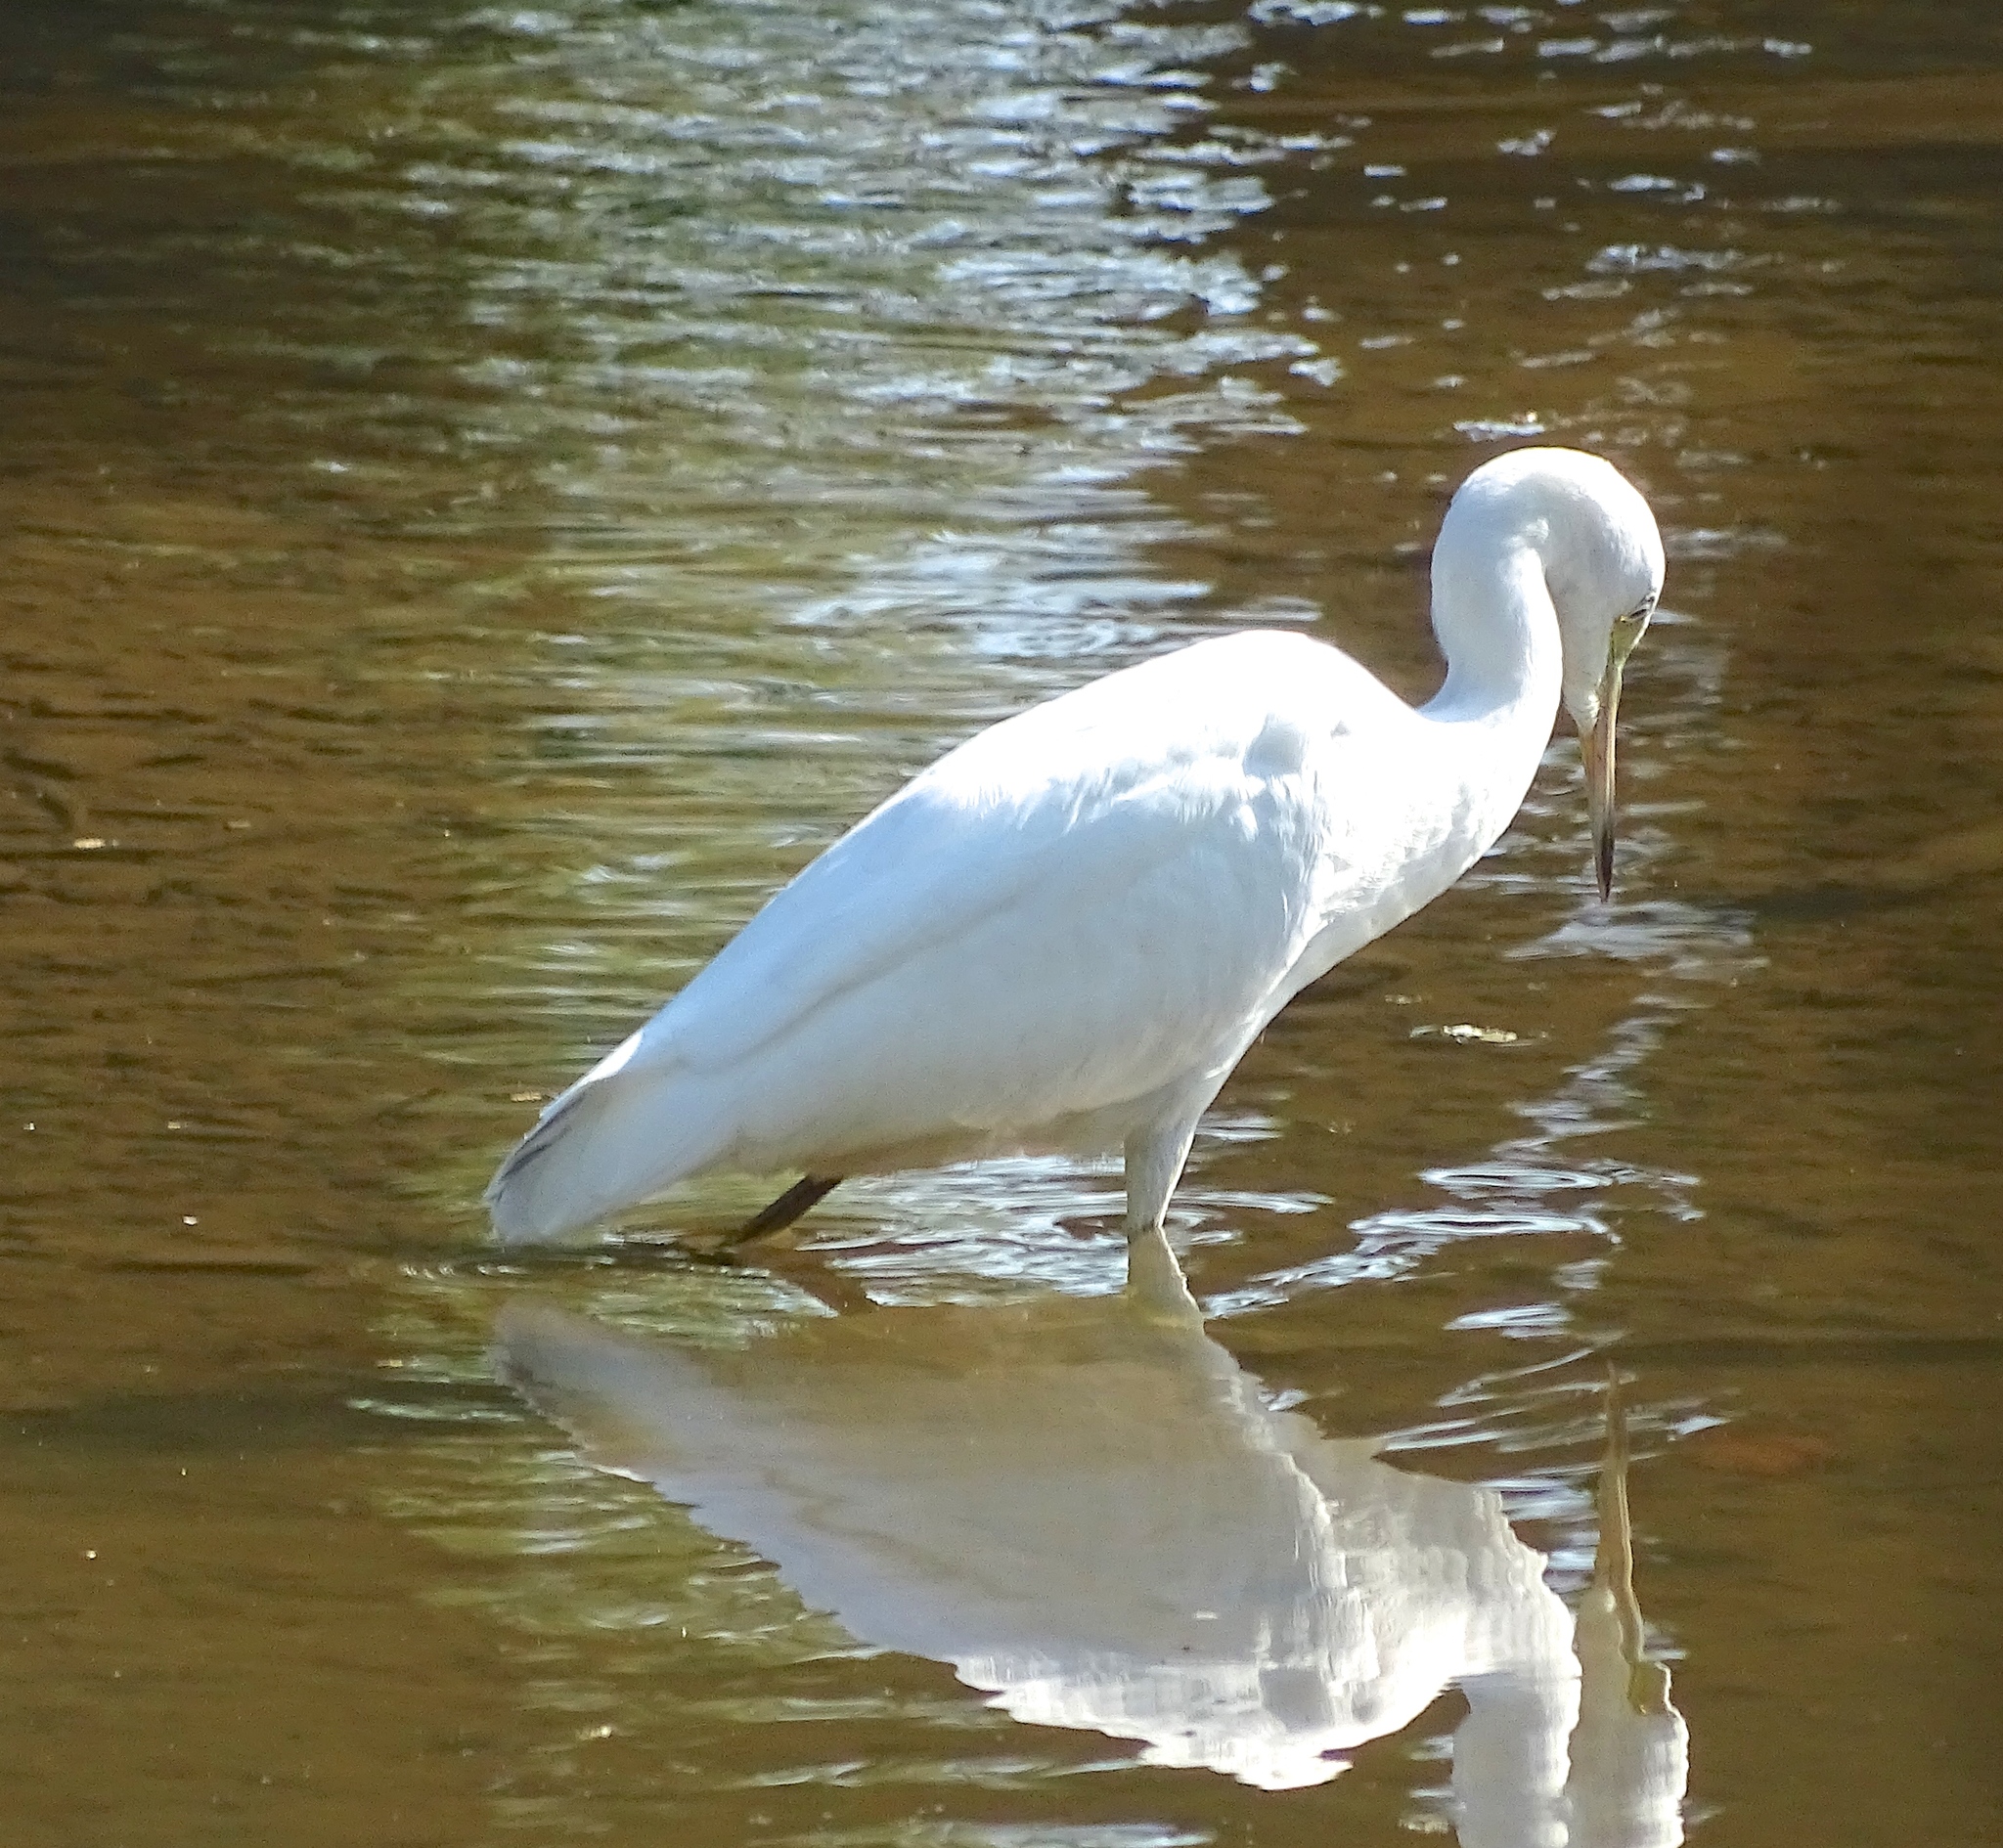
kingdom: Animalia
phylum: Chordata
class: Aves
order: Pelecaniformes
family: Ardeidae
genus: Egretta
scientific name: Egretta caerulea
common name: Little blue heron
